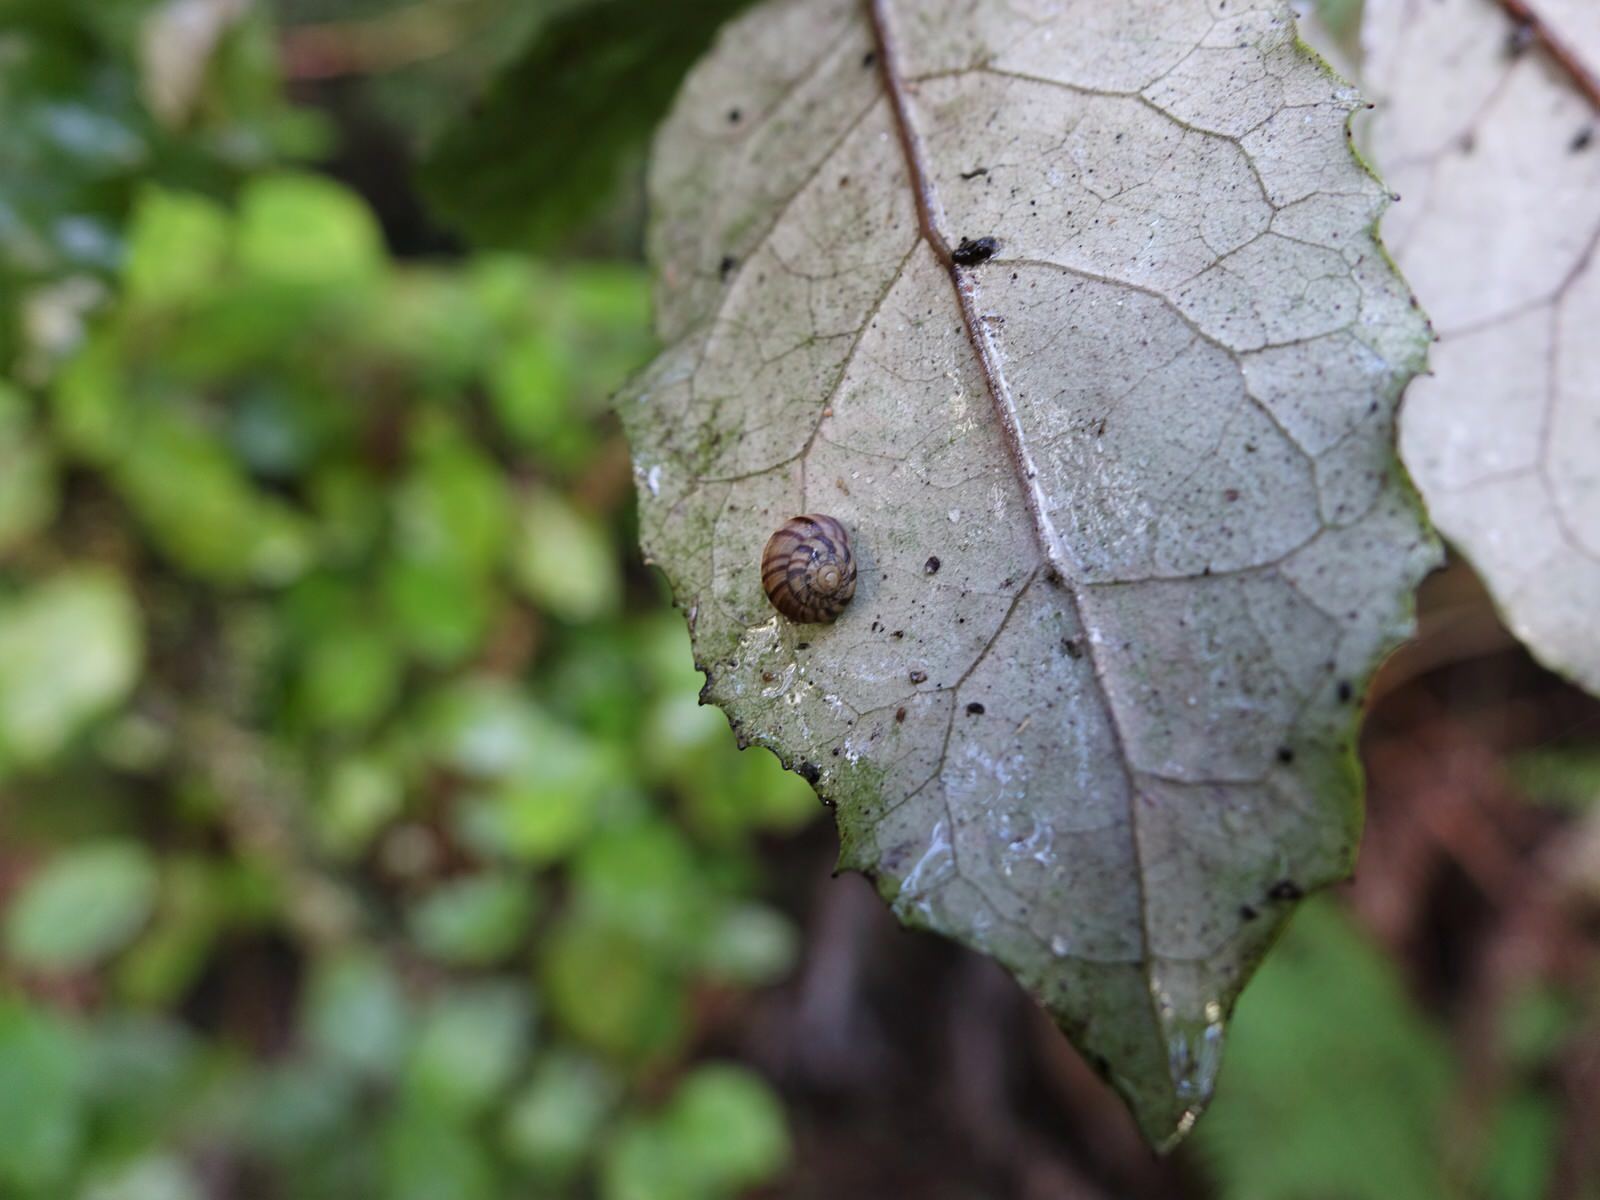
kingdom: Animalia
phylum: Mollusca
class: Gastropoda
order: Stylommatophora
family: Charopidae
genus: Serpho
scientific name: Serpho
